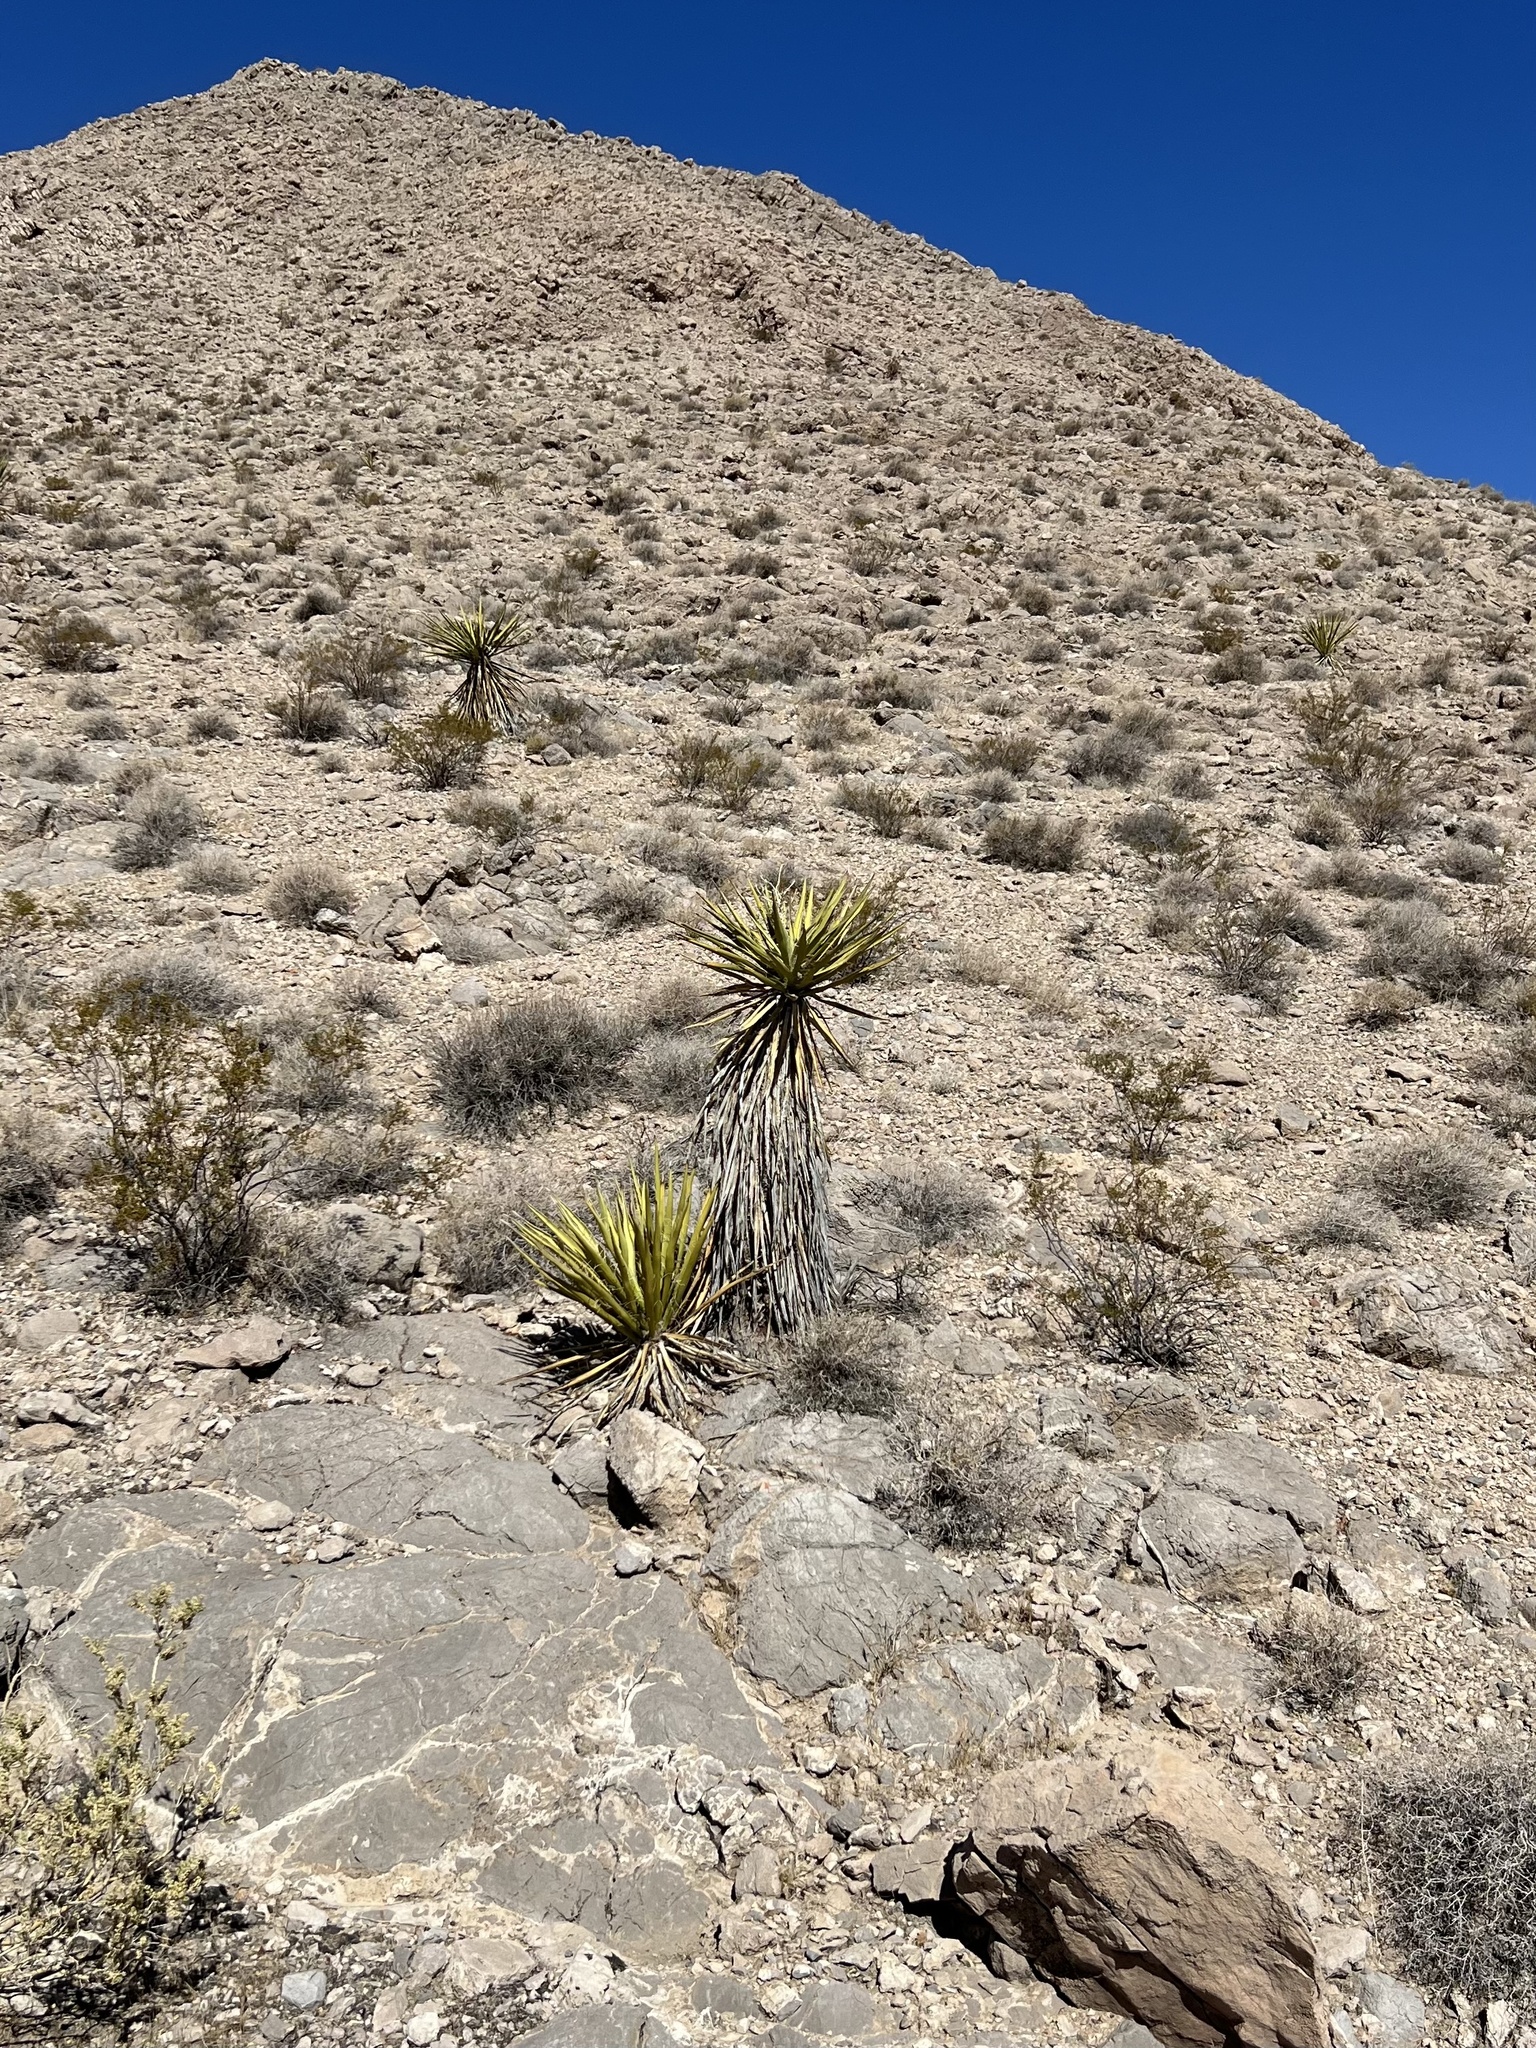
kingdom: Plantae
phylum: Tracheophyta
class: Liliopsida
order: Asparagales
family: Asparagaceae
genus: Yucca
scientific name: Yucca schidigera
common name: Mojave yucca
